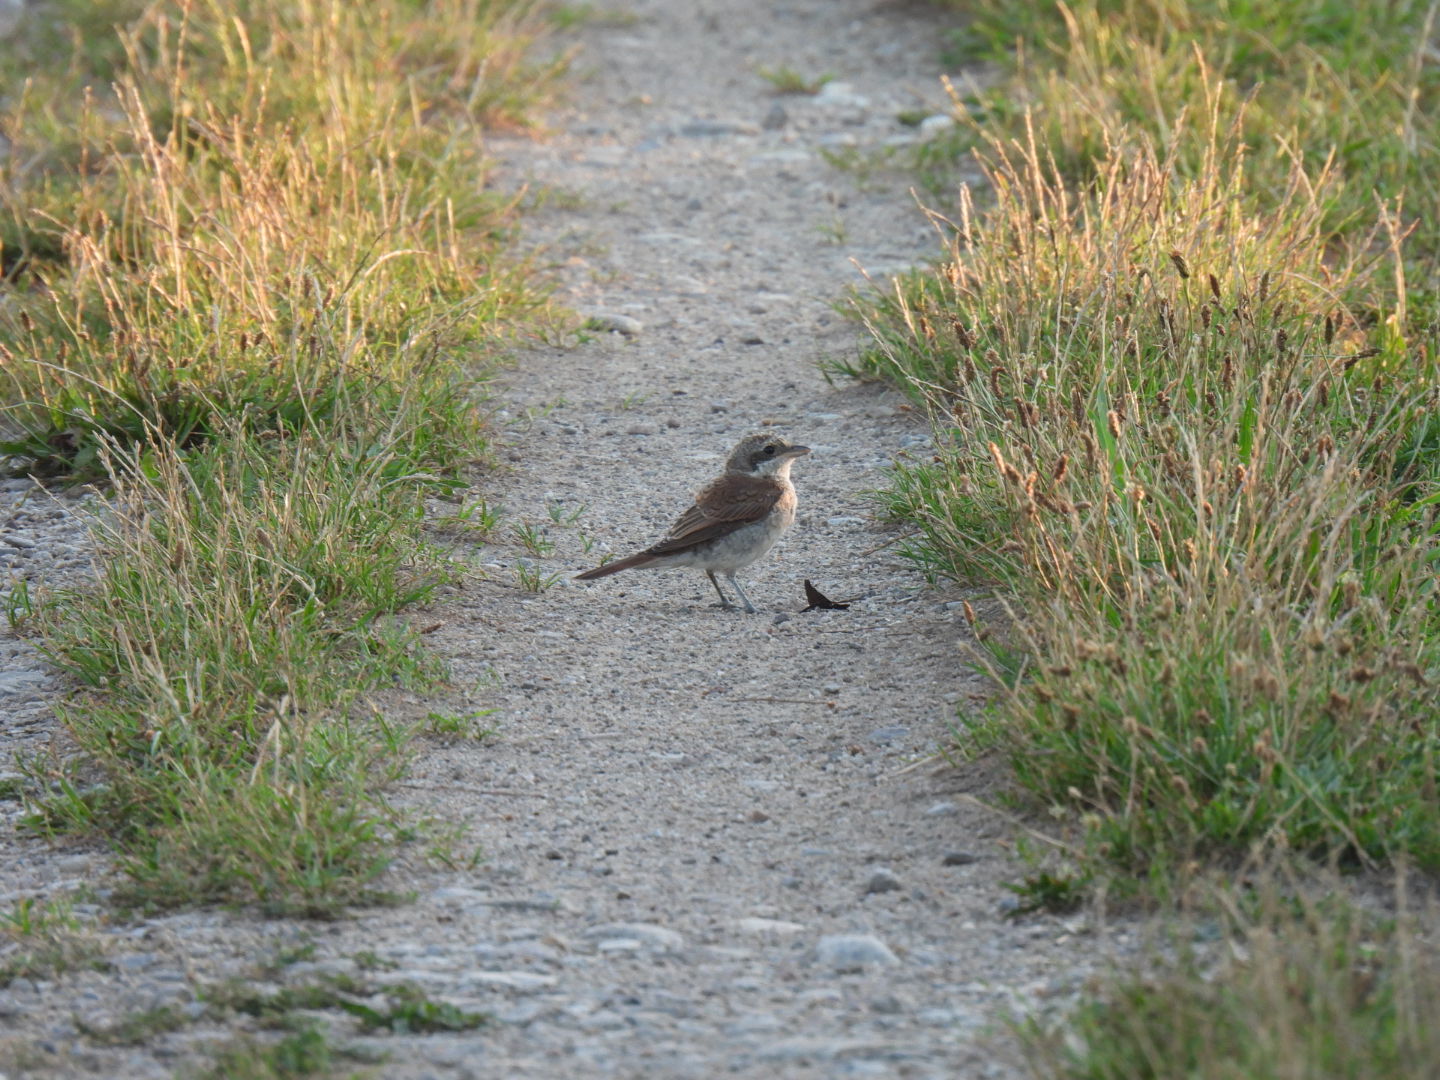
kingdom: Animalia
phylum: Chordata
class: Aves
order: Passeriformes
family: Laniidae
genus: Lanius
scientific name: Lanius collurio
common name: Red-backed shrike
